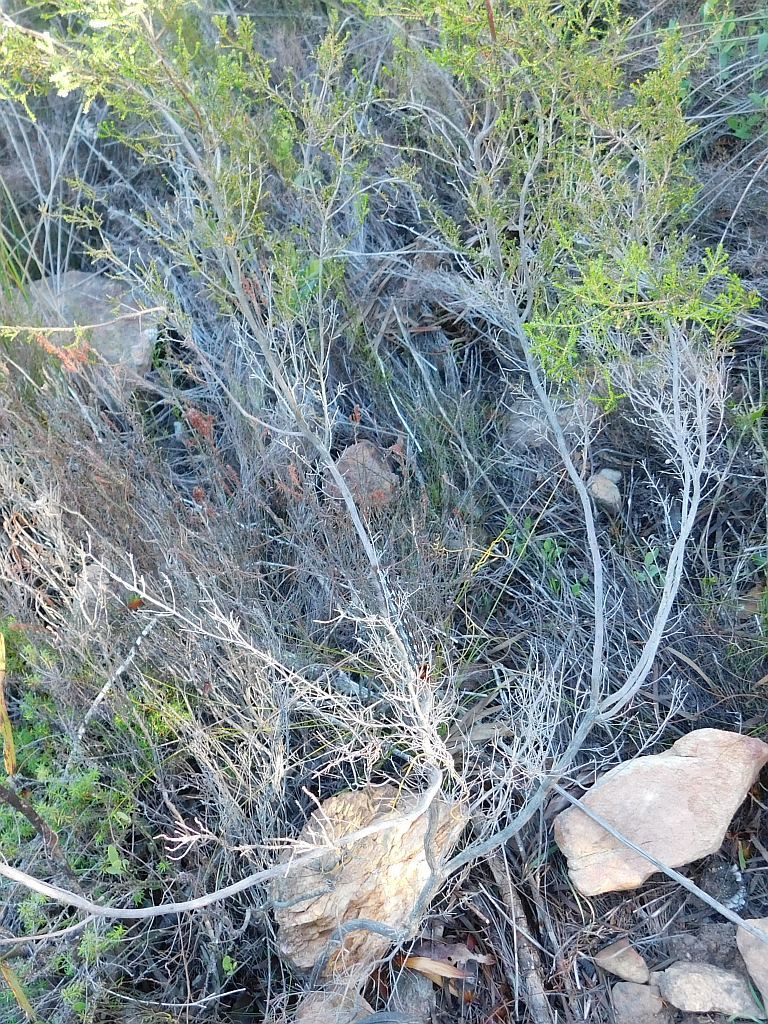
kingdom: Animalia
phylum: Arthropoda
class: Insecta
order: Lepidoptera
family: Lasiocampidae
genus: Streblote
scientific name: Streblote cristata
